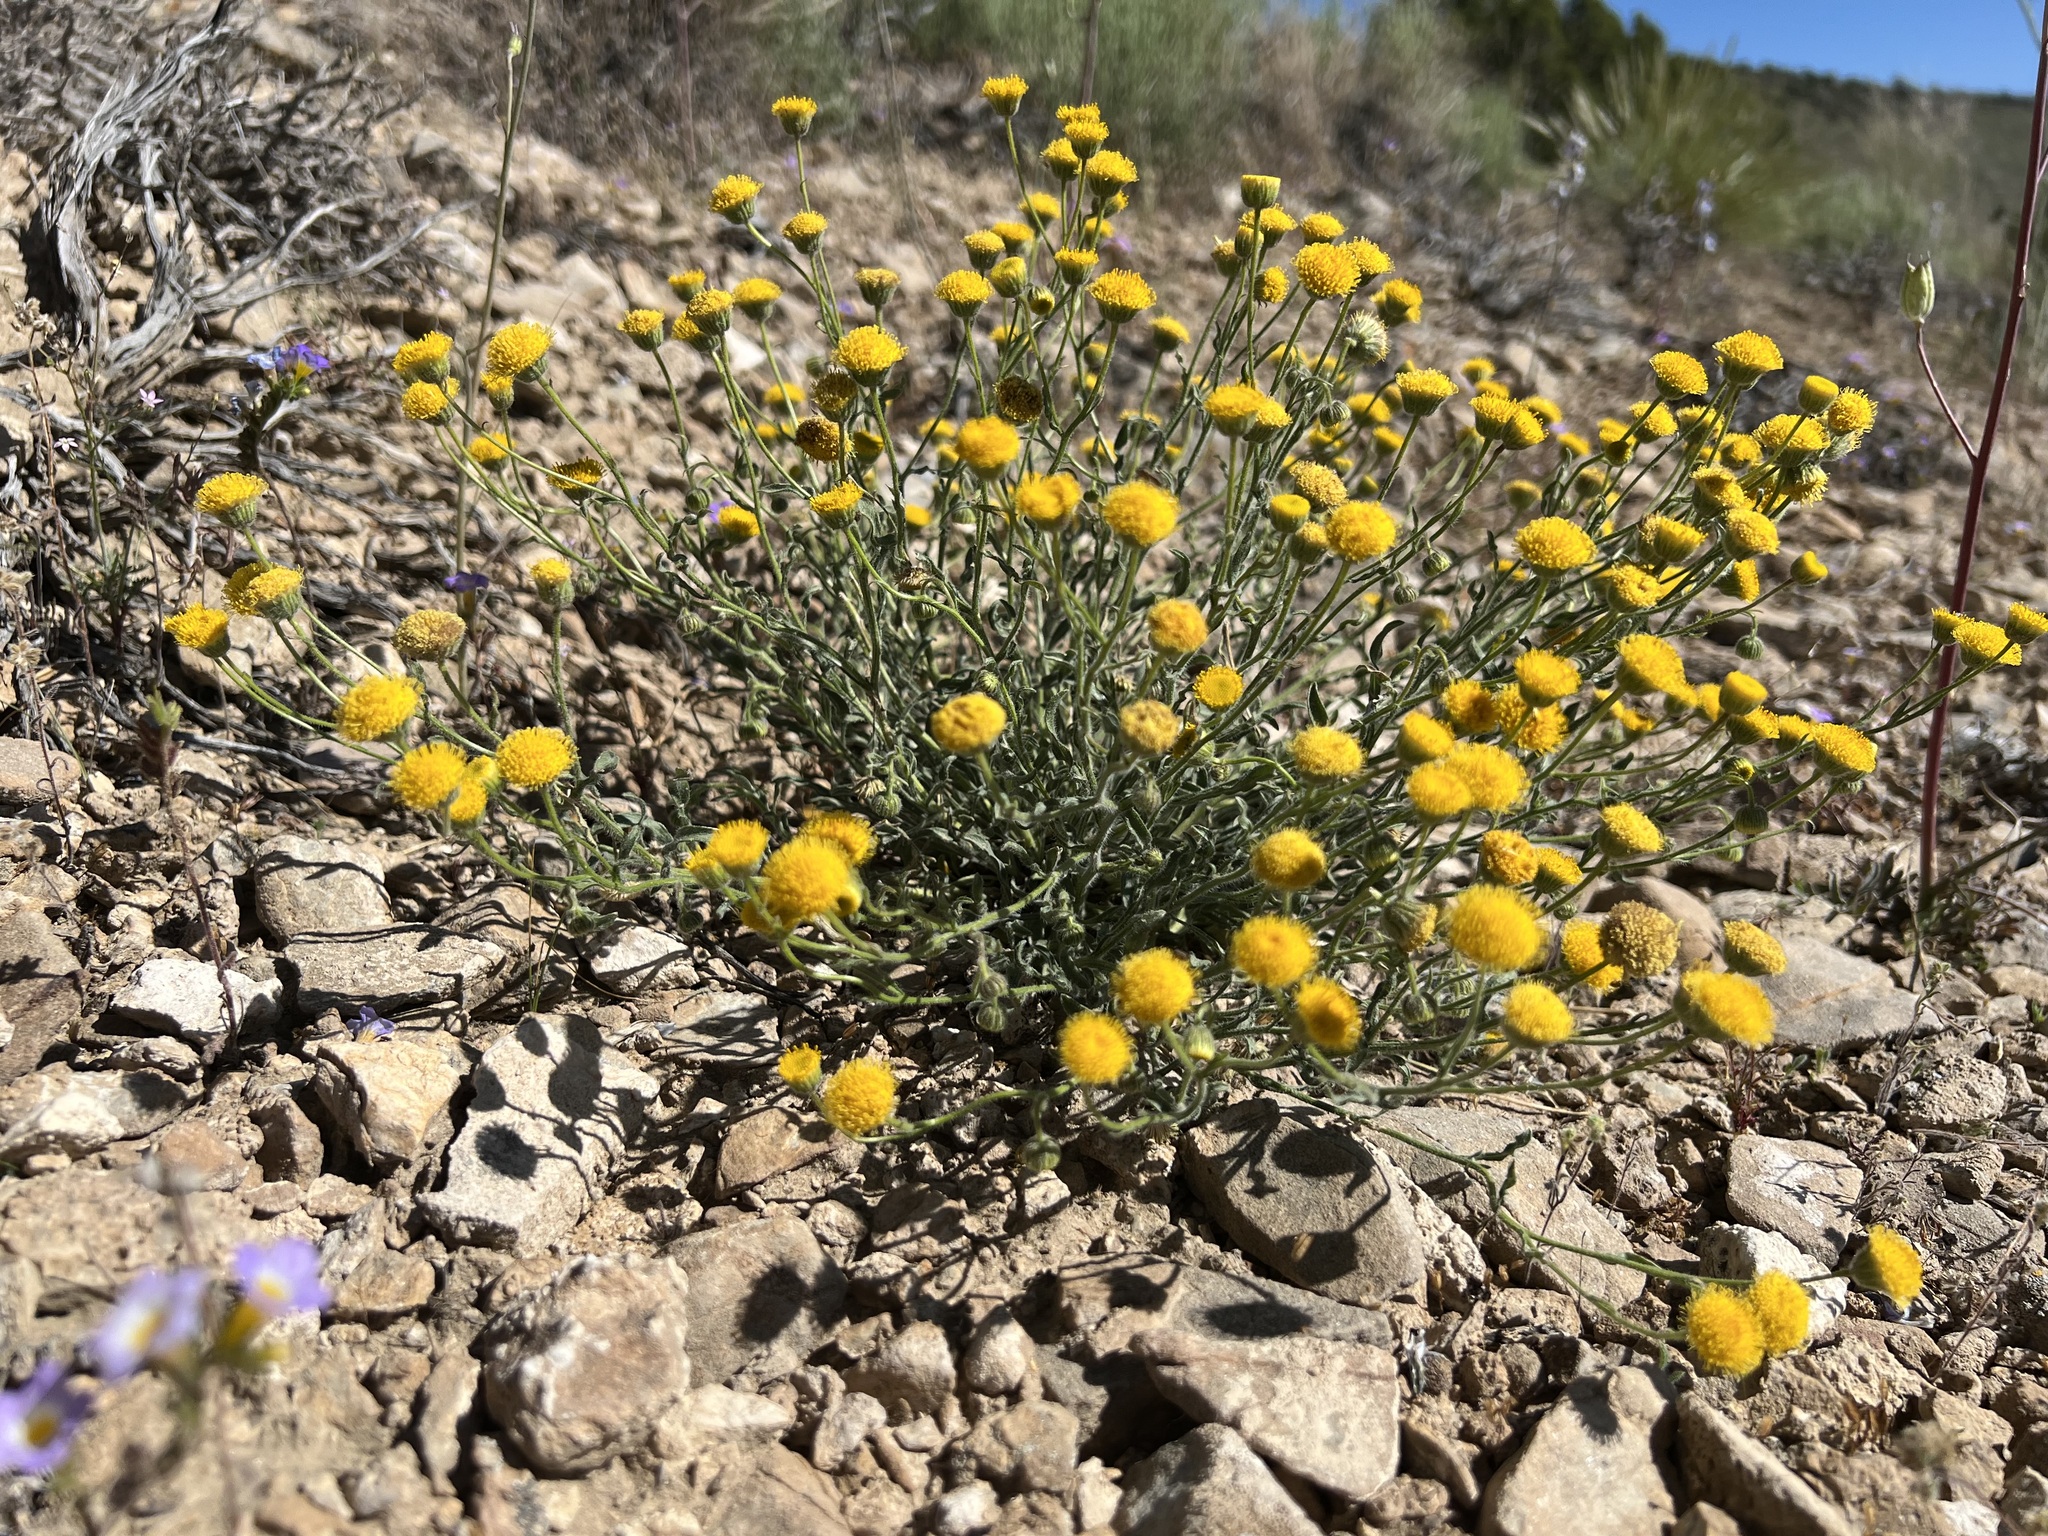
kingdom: Plantae
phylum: Tracheophyta
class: Magnoliopsida
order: Asterales
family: Asteraceae
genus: Erigeron
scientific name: Erigeron aphanactis
